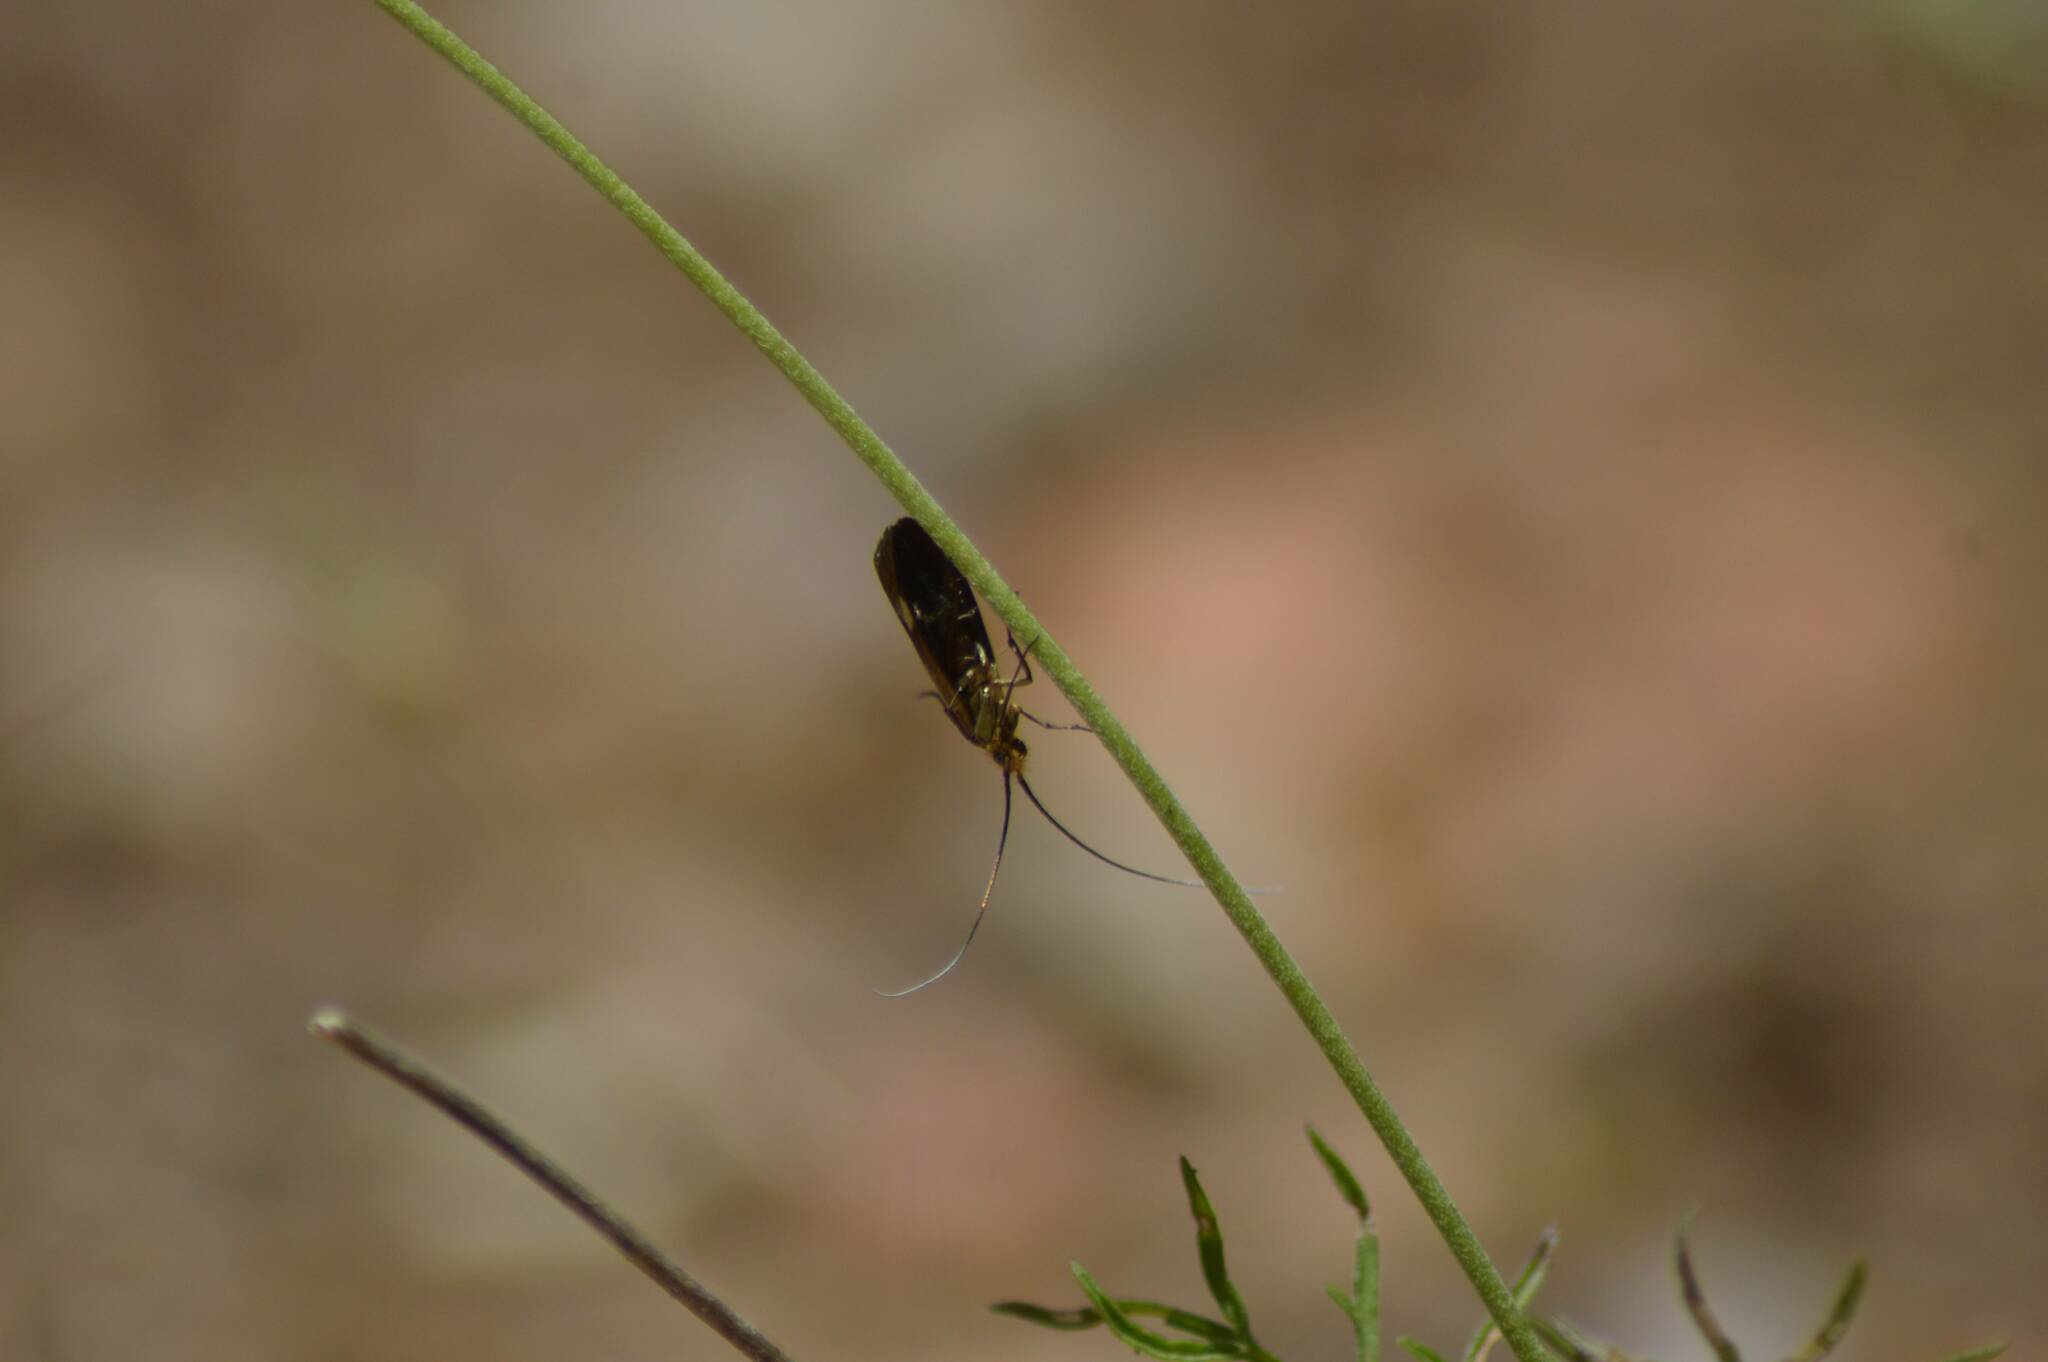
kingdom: Animalia
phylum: Arthropoda
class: Insecta
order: Lepidoptera
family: Adelidae
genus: Nemophora
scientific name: Nemophora raddaella
